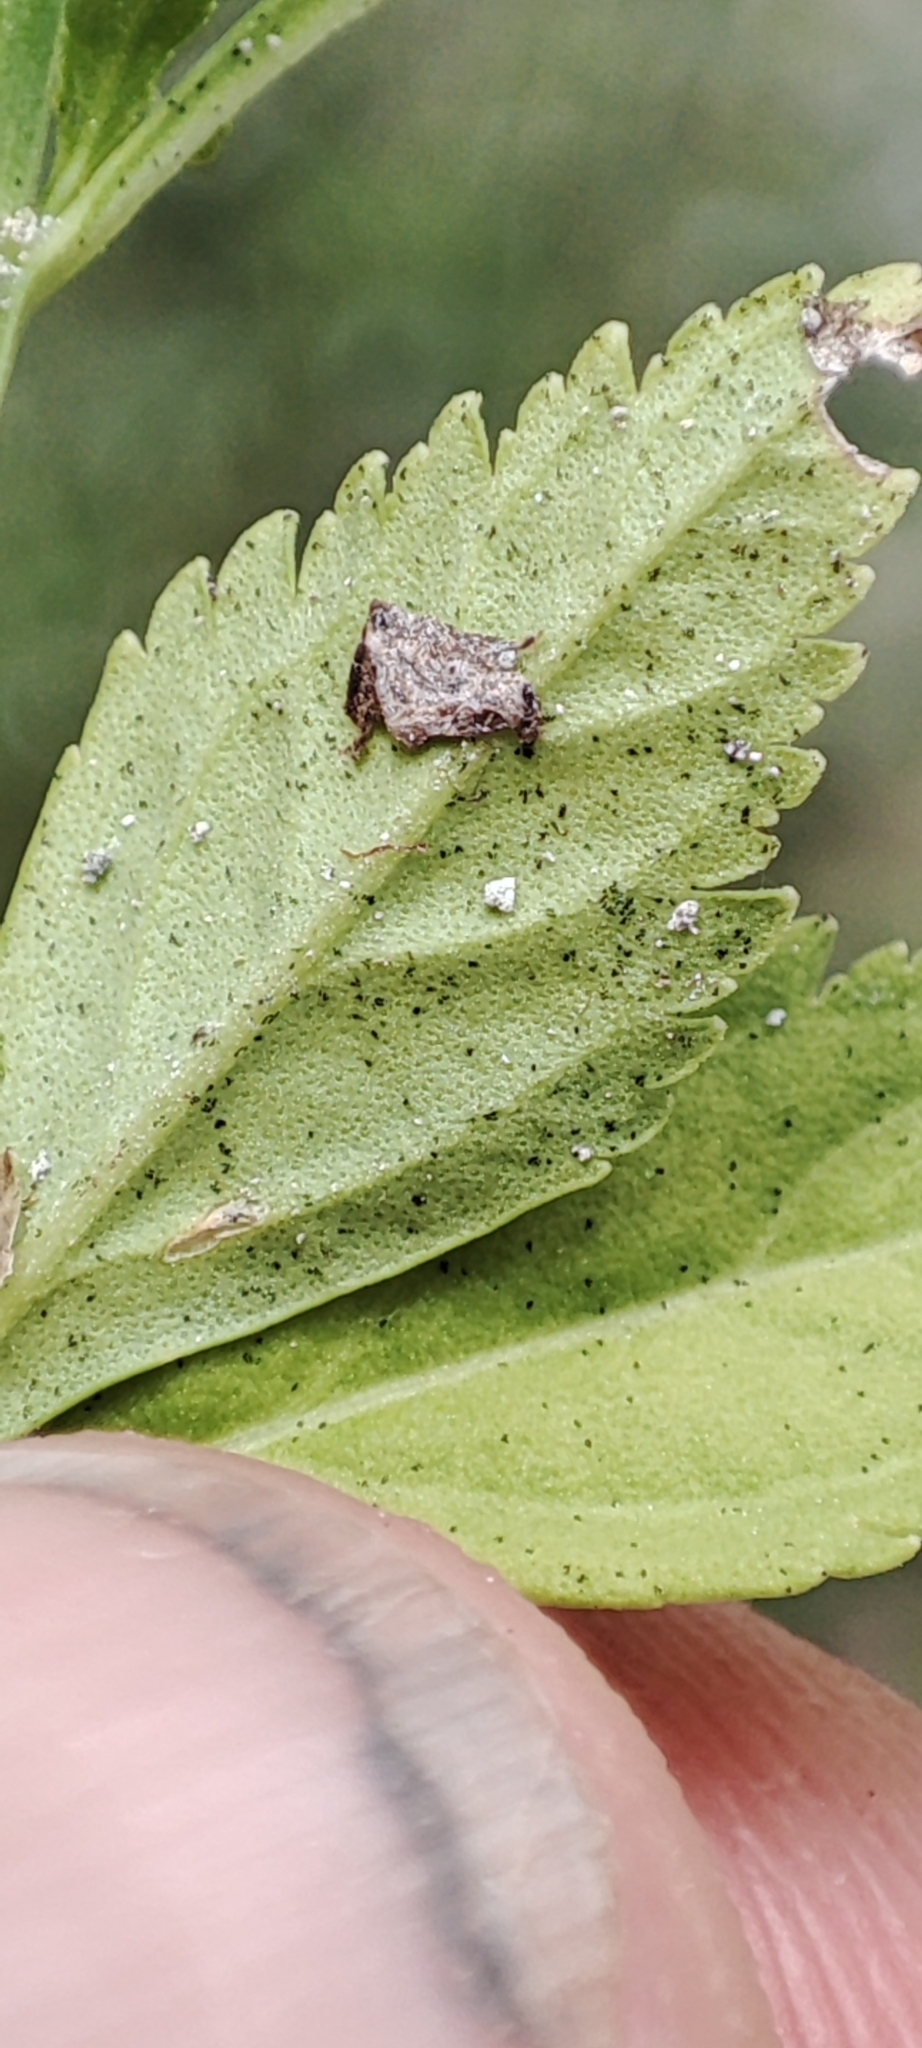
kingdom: Plantae
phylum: Tracheophyta
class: Magnoliopsida
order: Lamiales
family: Plantaginaceae
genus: Scoparia
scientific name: Scoparia dulcis
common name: Scoparia-weed
